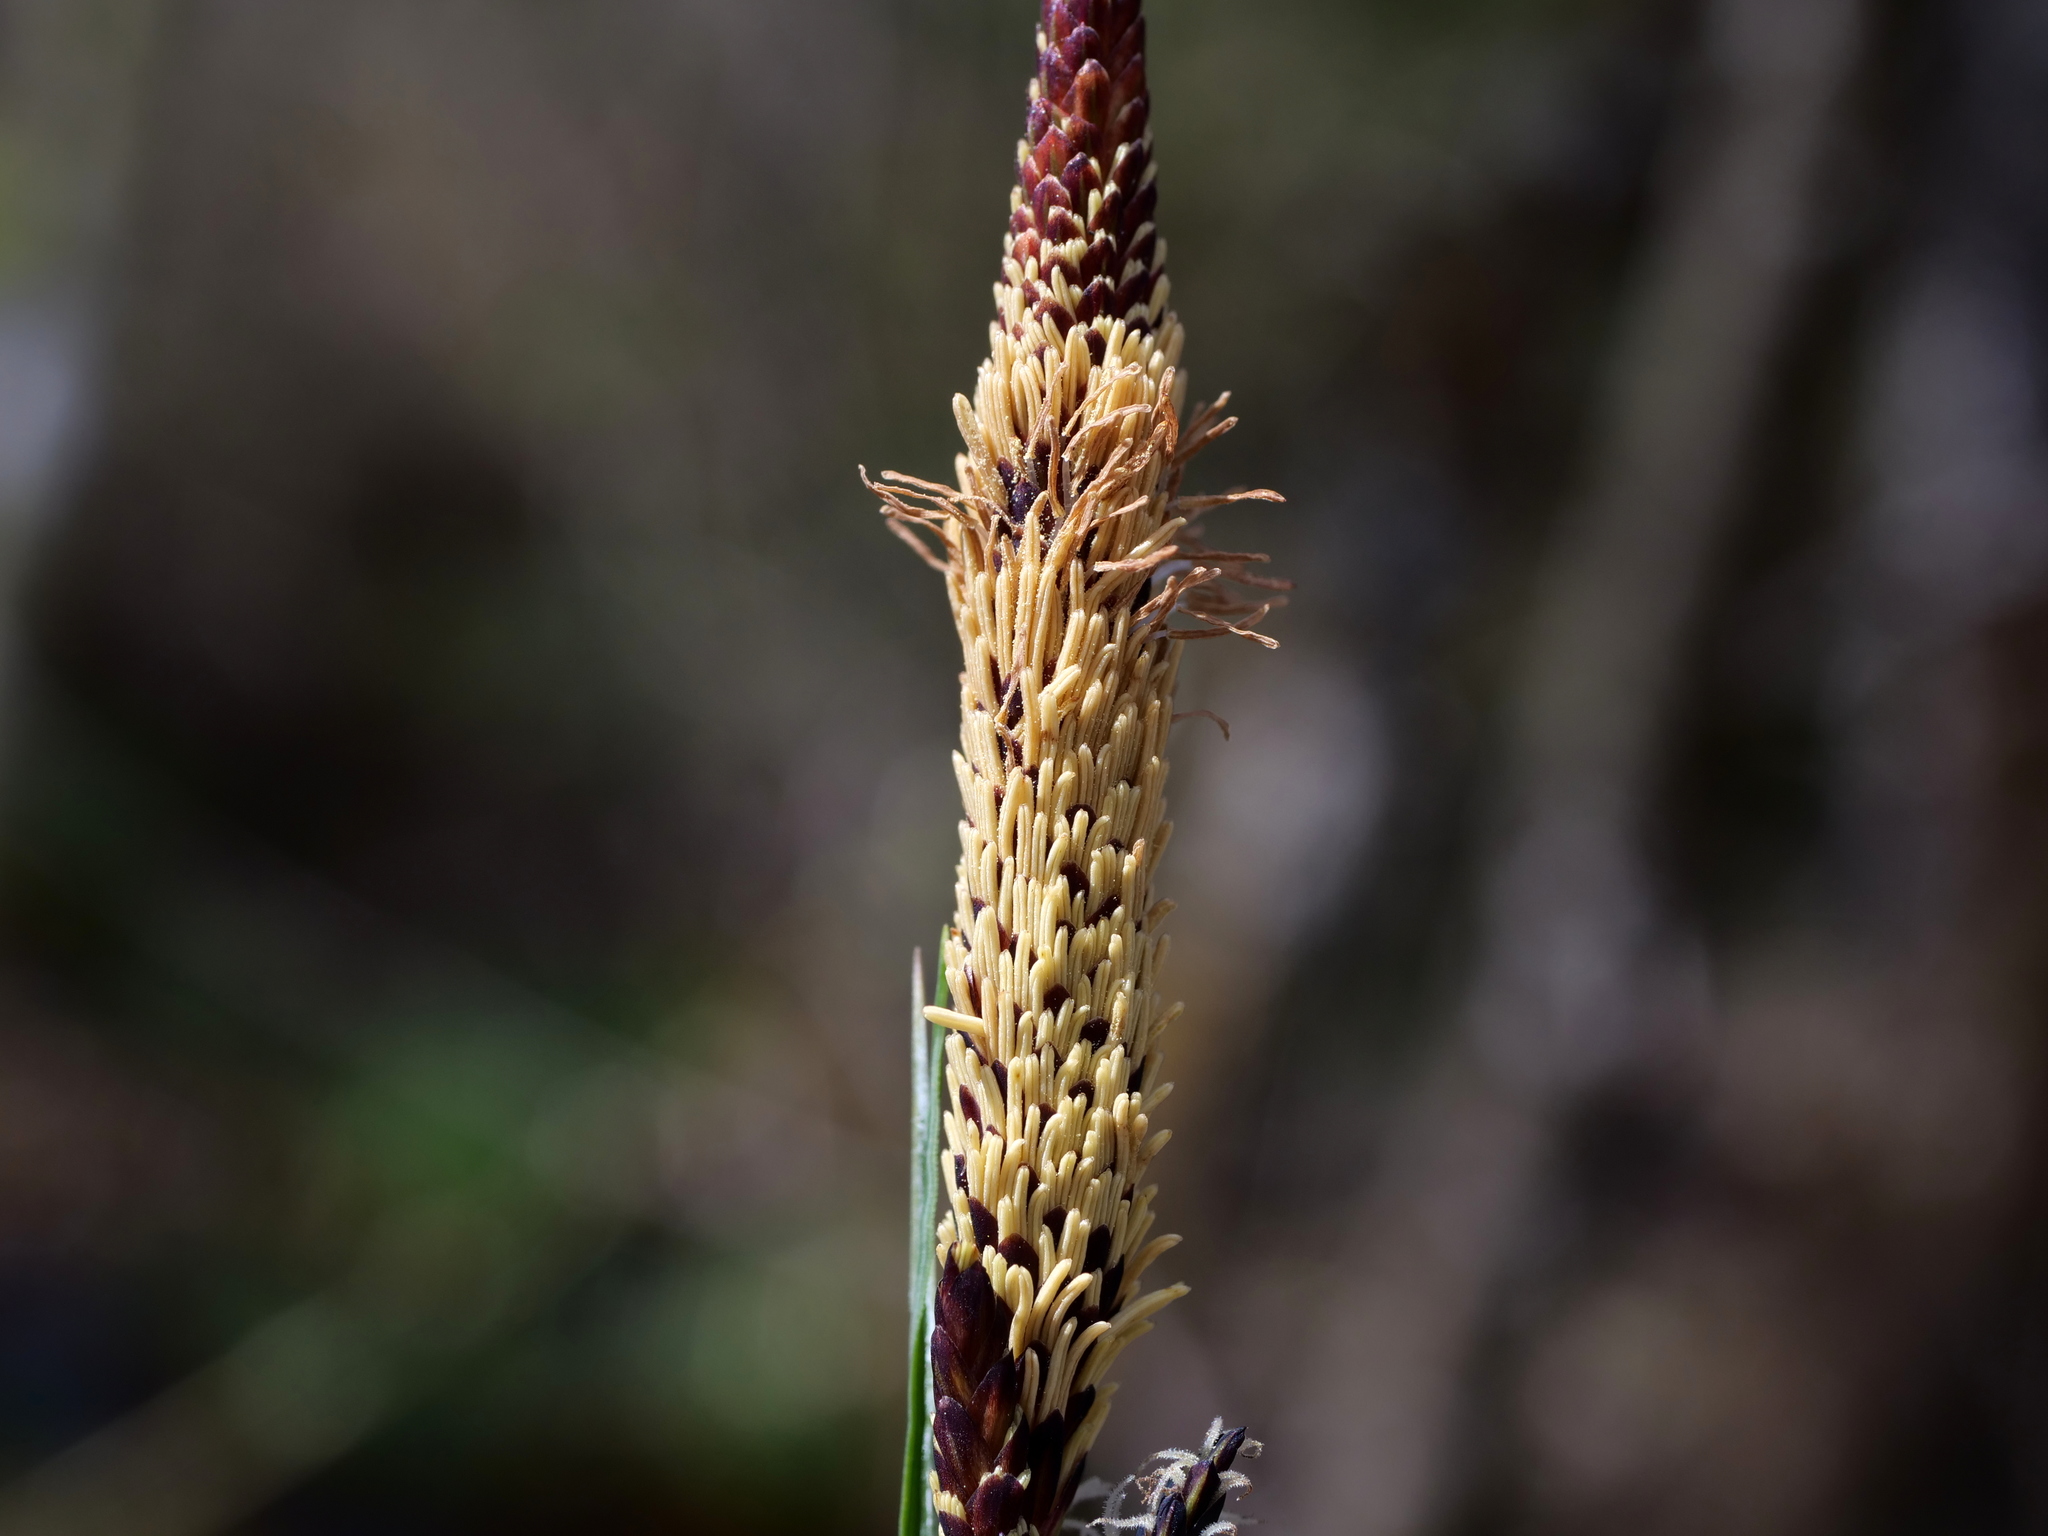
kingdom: Plantae
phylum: Tracheophyta
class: Liliopsida
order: Poales
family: Cyperaceae
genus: Carex
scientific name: Carex nigra
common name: Common sedge
